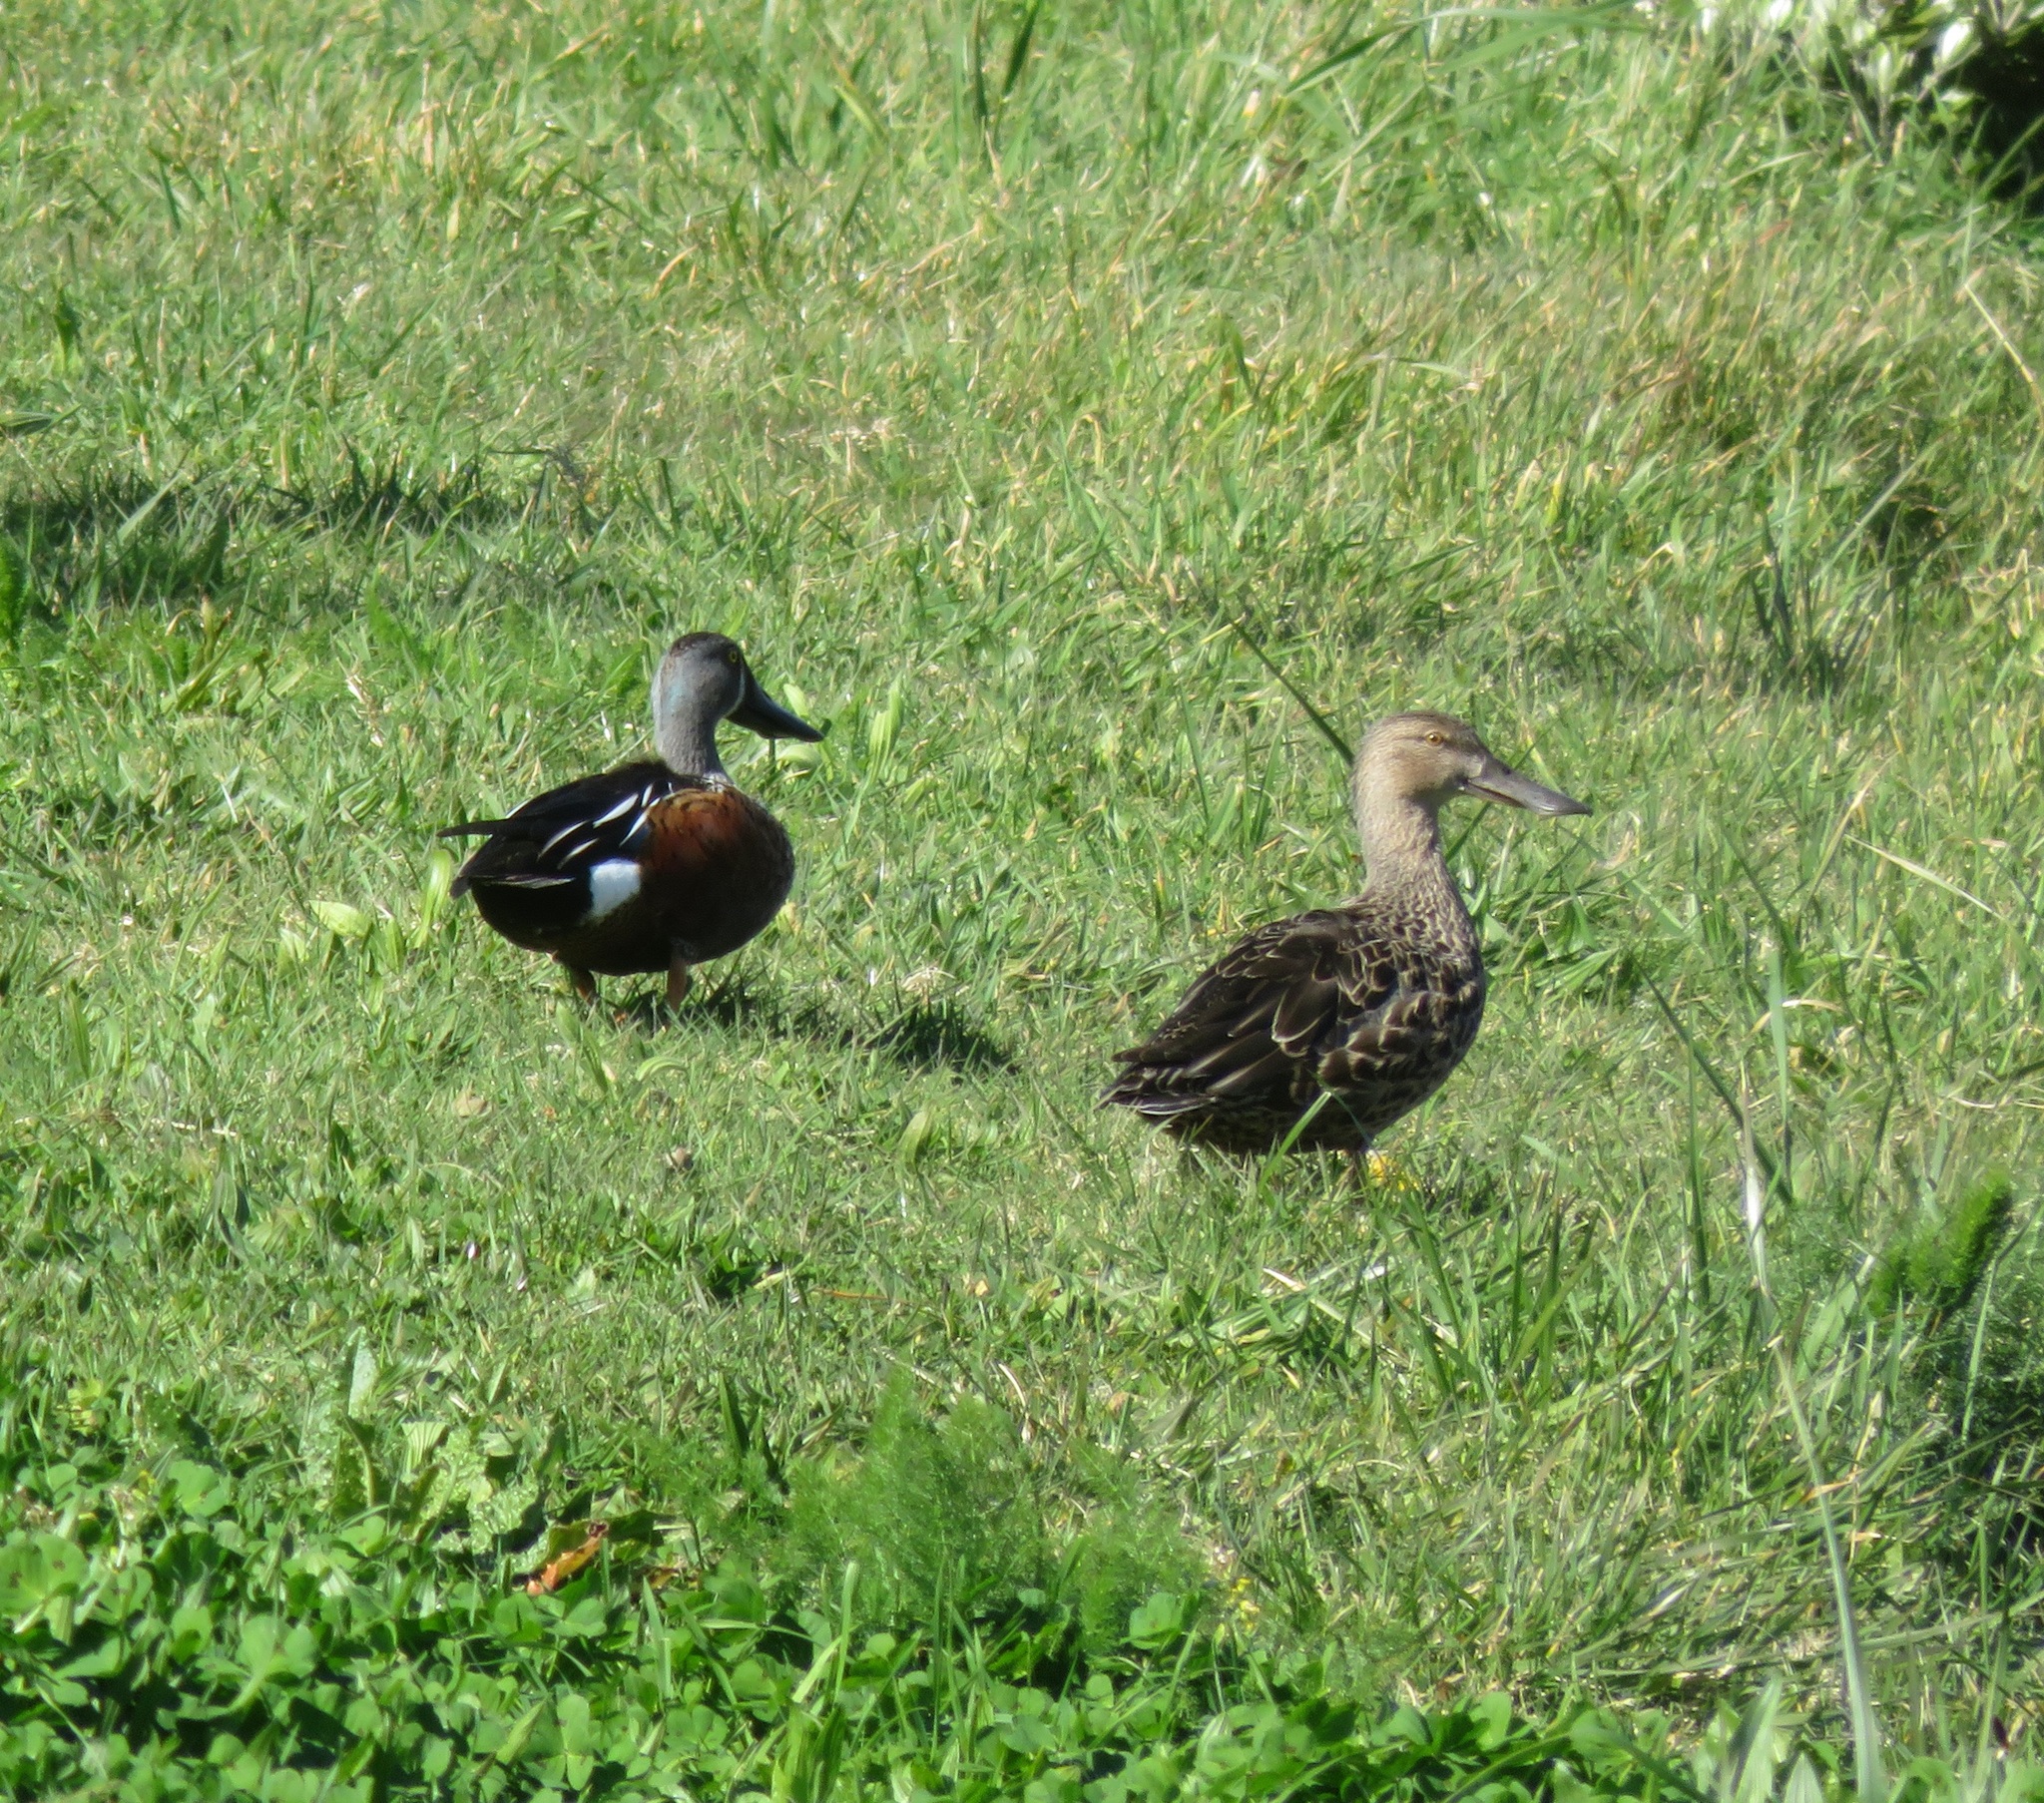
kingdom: Animalia
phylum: Chordata
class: Aves
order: Anseriformes
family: Anatidae
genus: Spatula
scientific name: Spatula rhynchotis
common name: Australian shoveler
